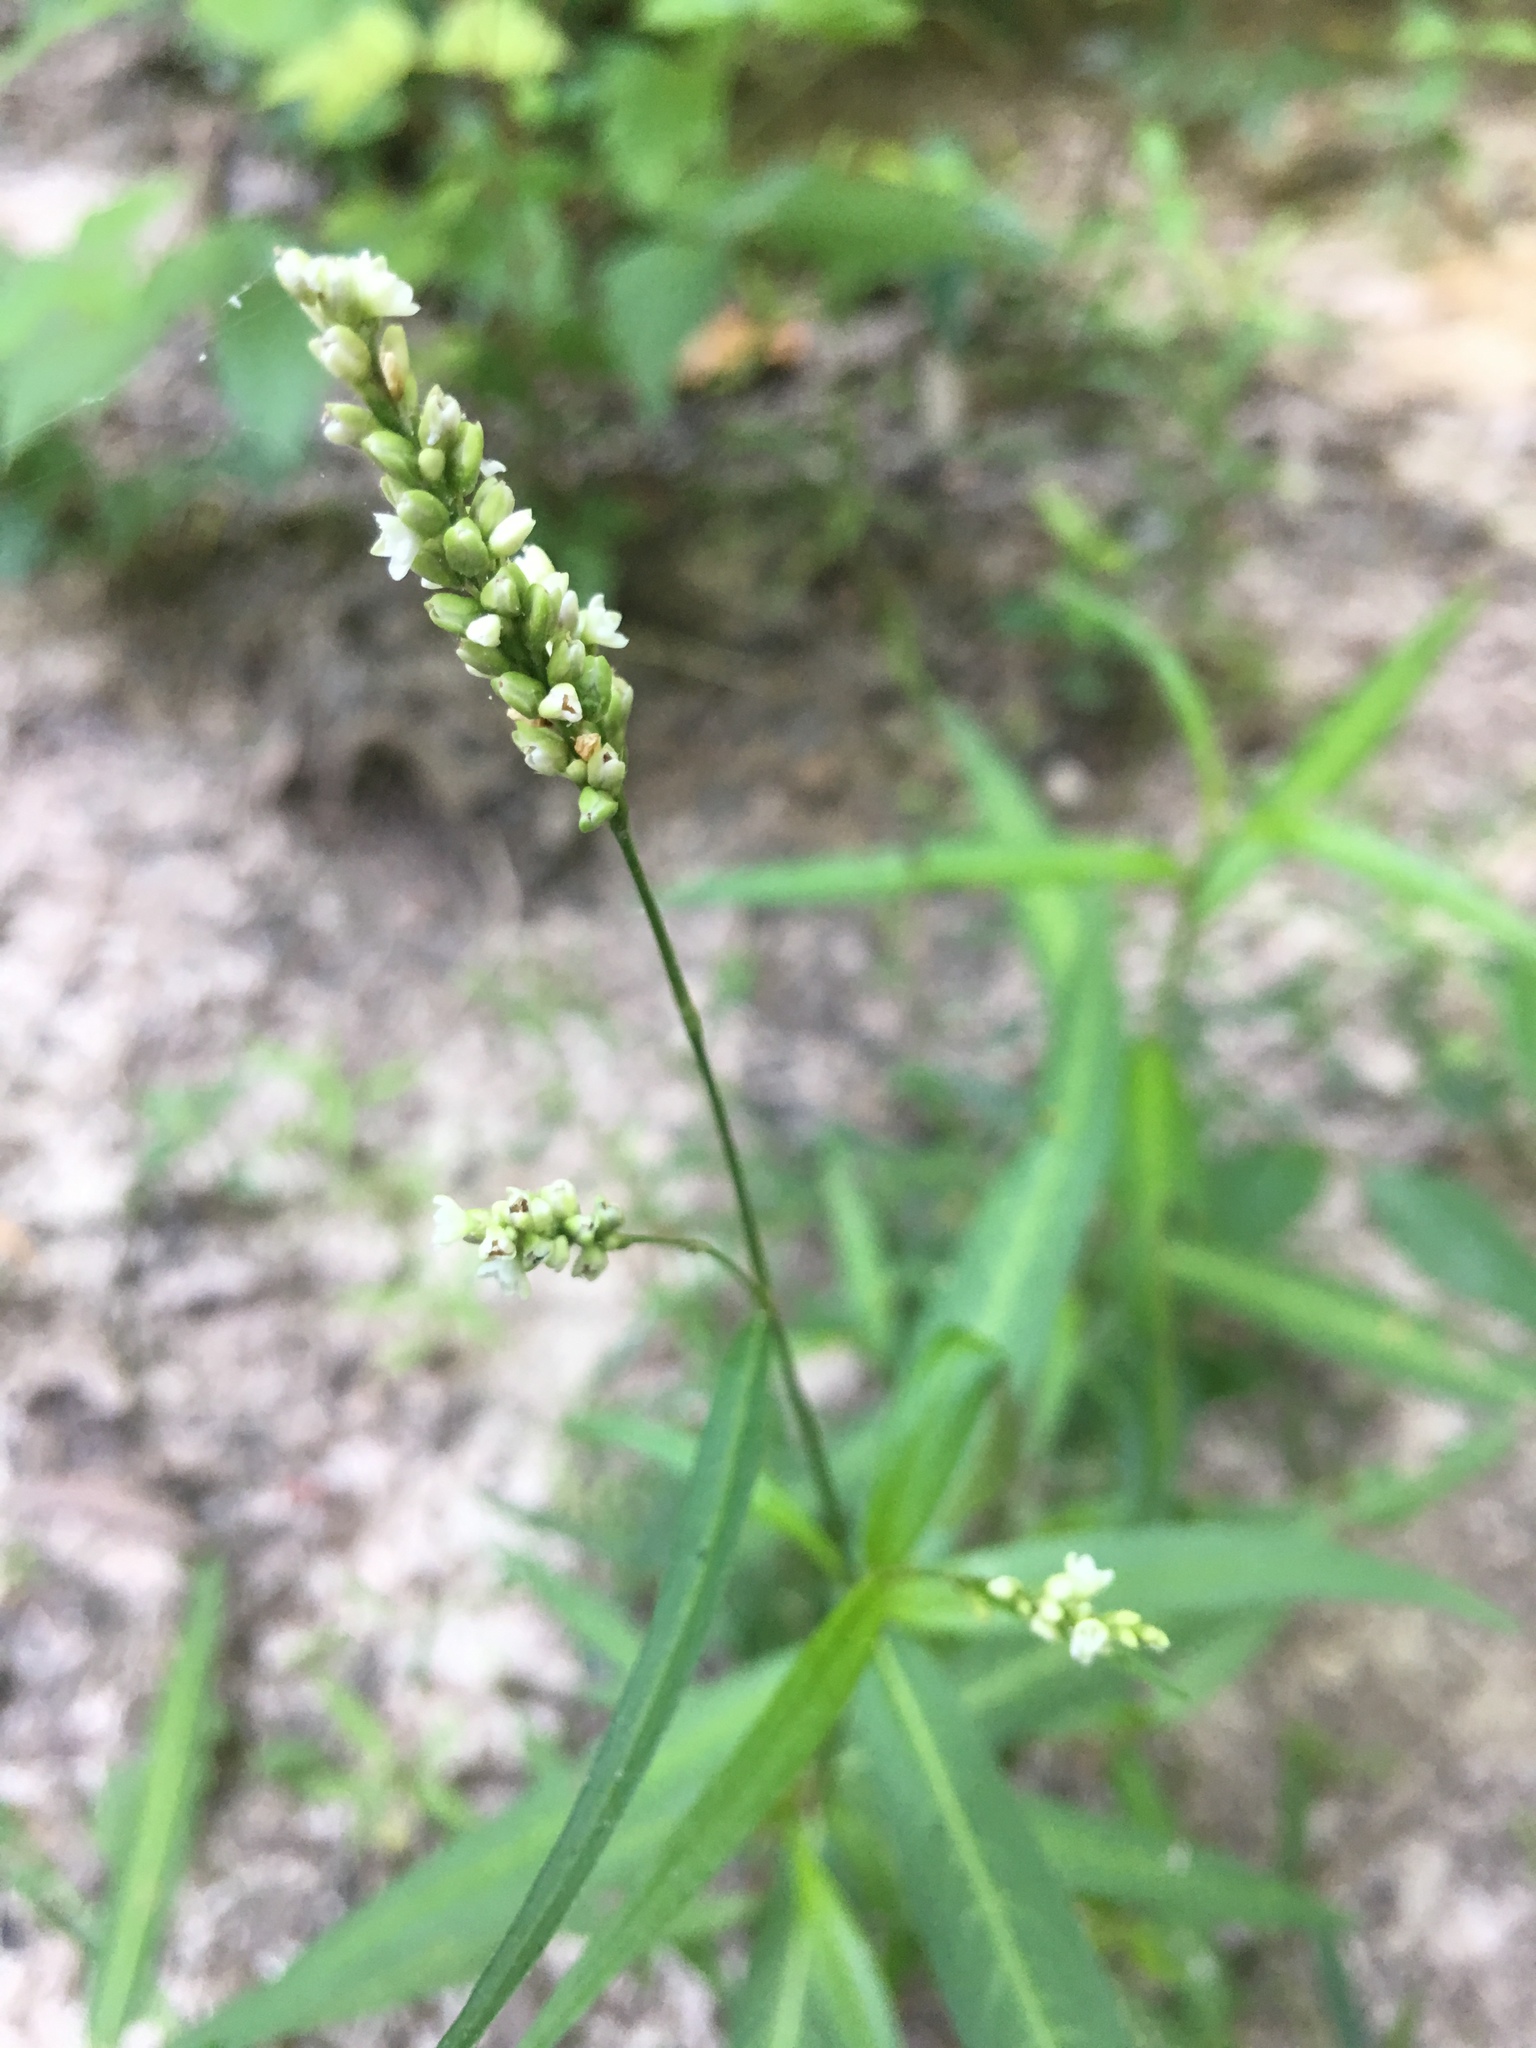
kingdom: Plantae
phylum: Tracheophyta
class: Magnoliopsida
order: Caryophyllales
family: Polygonaceae
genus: Persicaria
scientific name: Persicaria hydropiperoides
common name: Swamp smartweed
